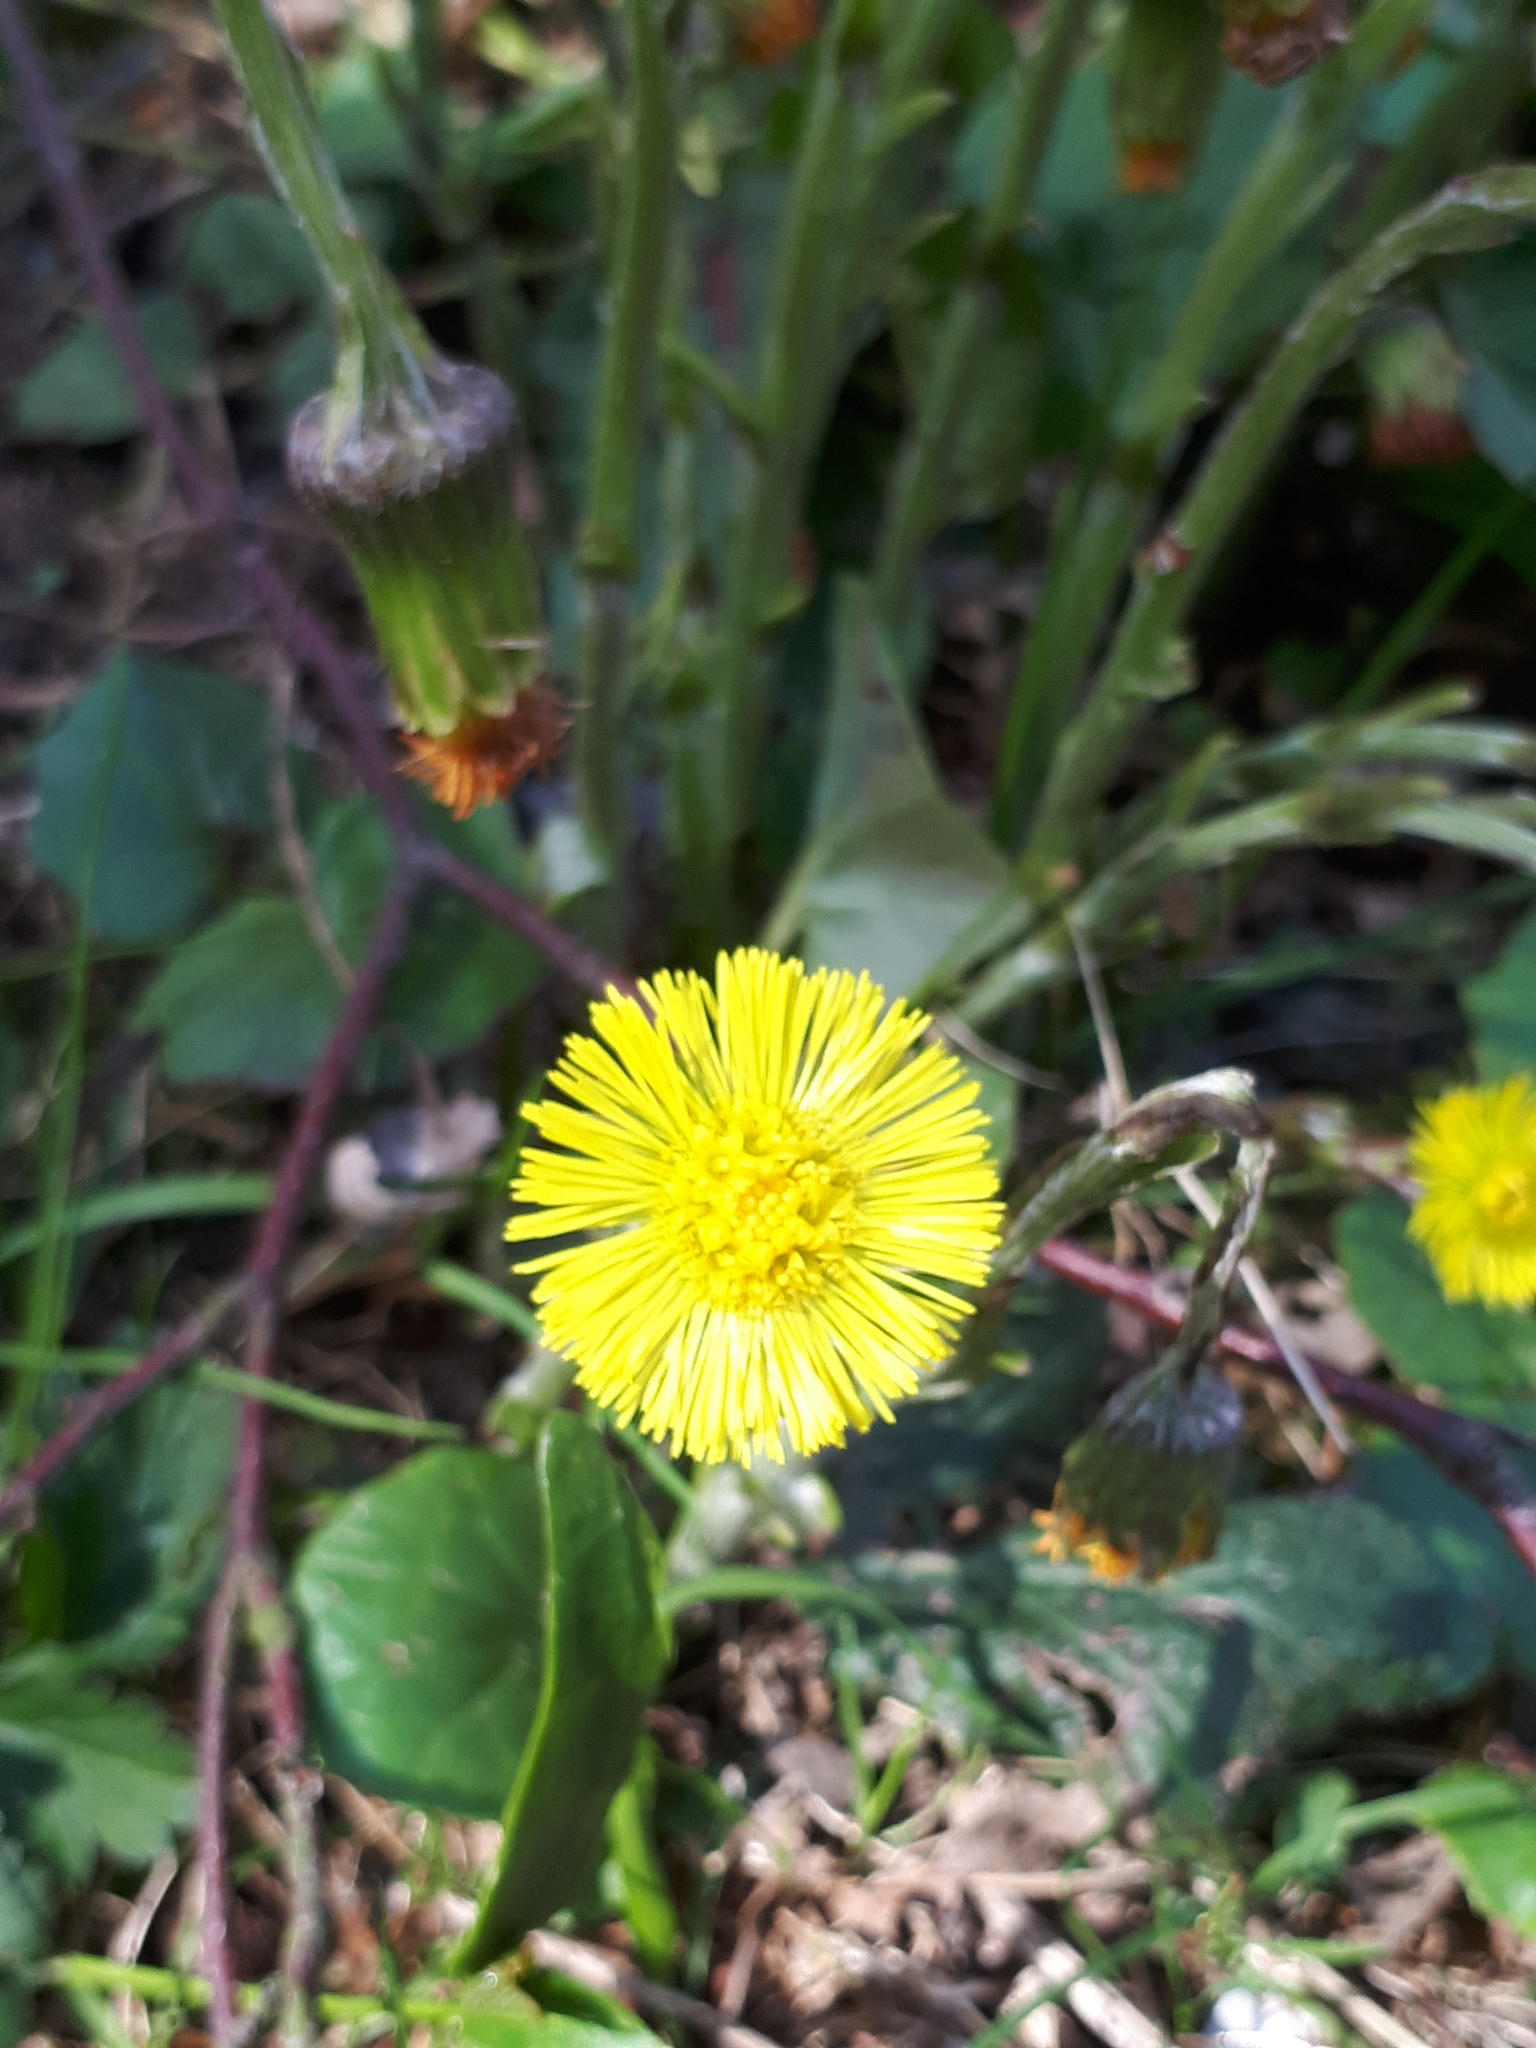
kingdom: Plantae
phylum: Tracheophyta
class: Magnoliopsida
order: Asterales
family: Asteraceae
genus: Tussilago
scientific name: Tussilago farfara
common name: Coltsfoot
